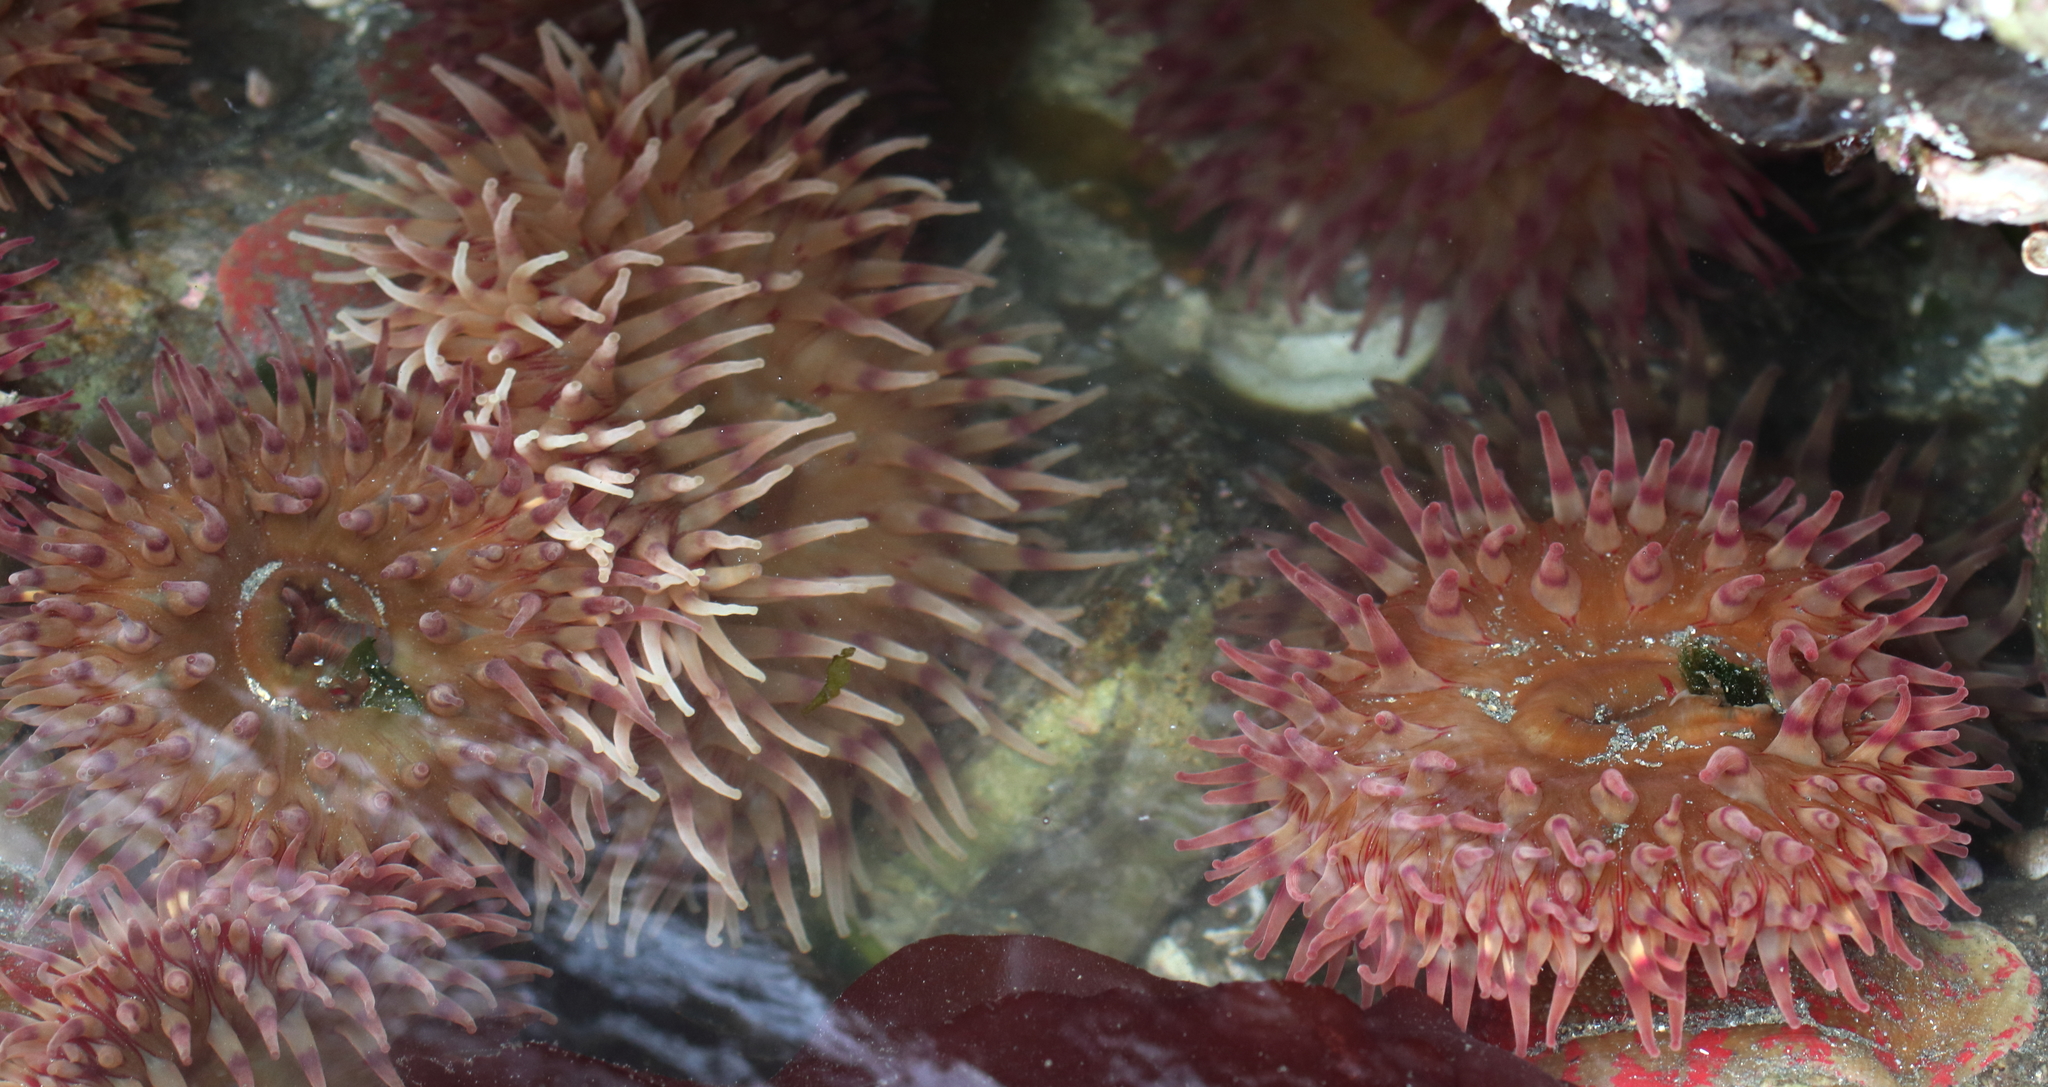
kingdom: Animalia
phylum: Cnidaria
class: Anthozoa
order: Actiniaria
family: Actiniidae
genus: Urticina
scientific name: Urticina grebelnyi
